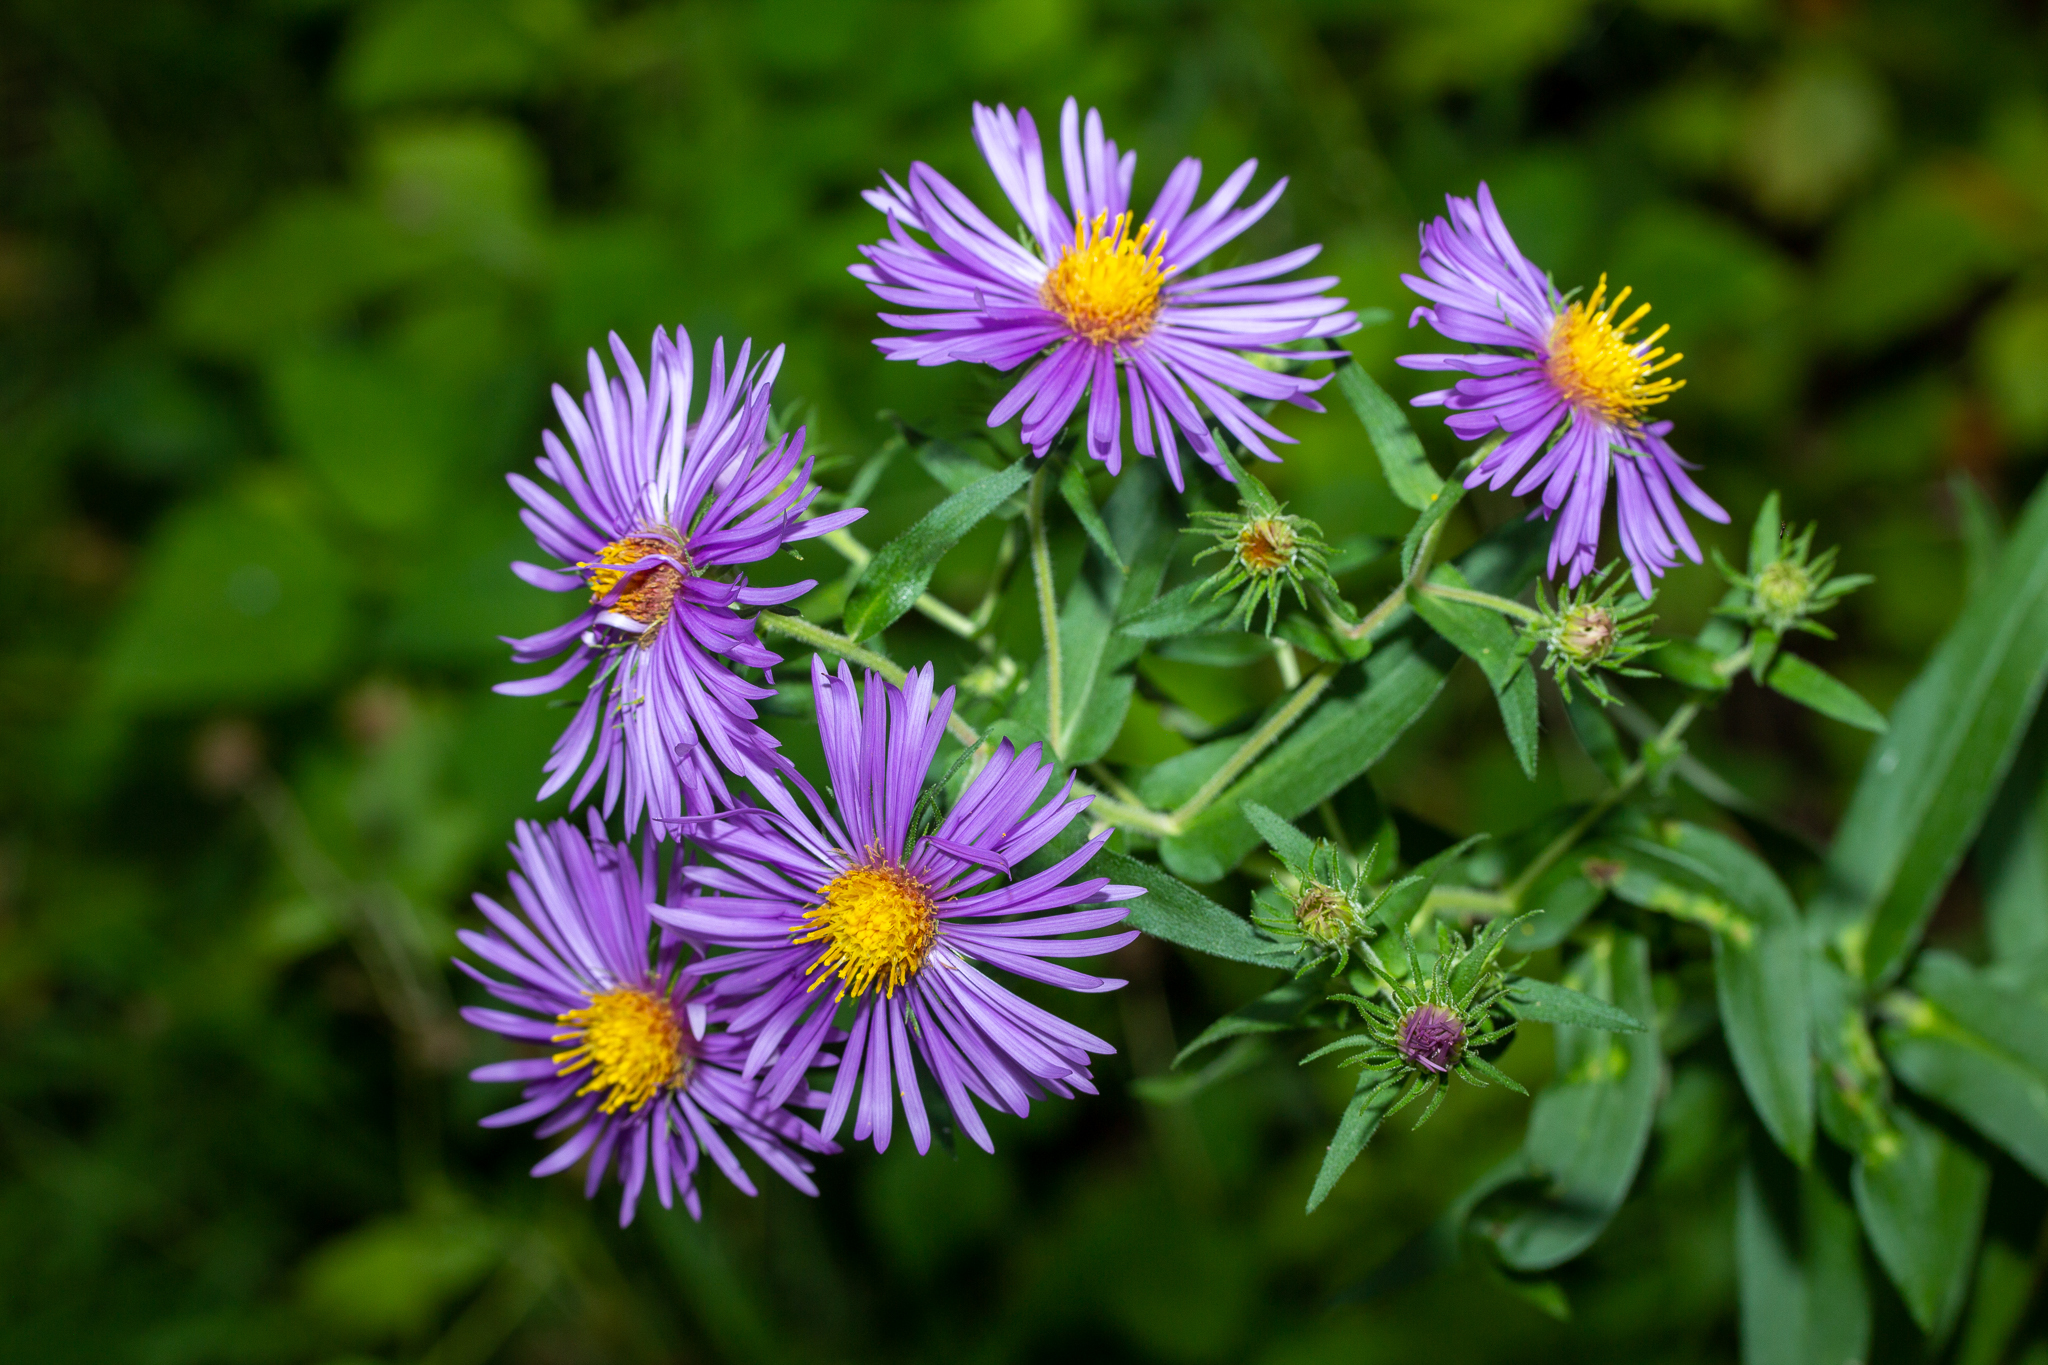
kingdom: Plantae
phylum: Tracheophyta
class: Magnoliopsida
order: Asterales
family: Asteraceae
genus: Symphyotrichum
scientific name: Symphyotrichum novae-angliae
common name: Michaelmas daisy
